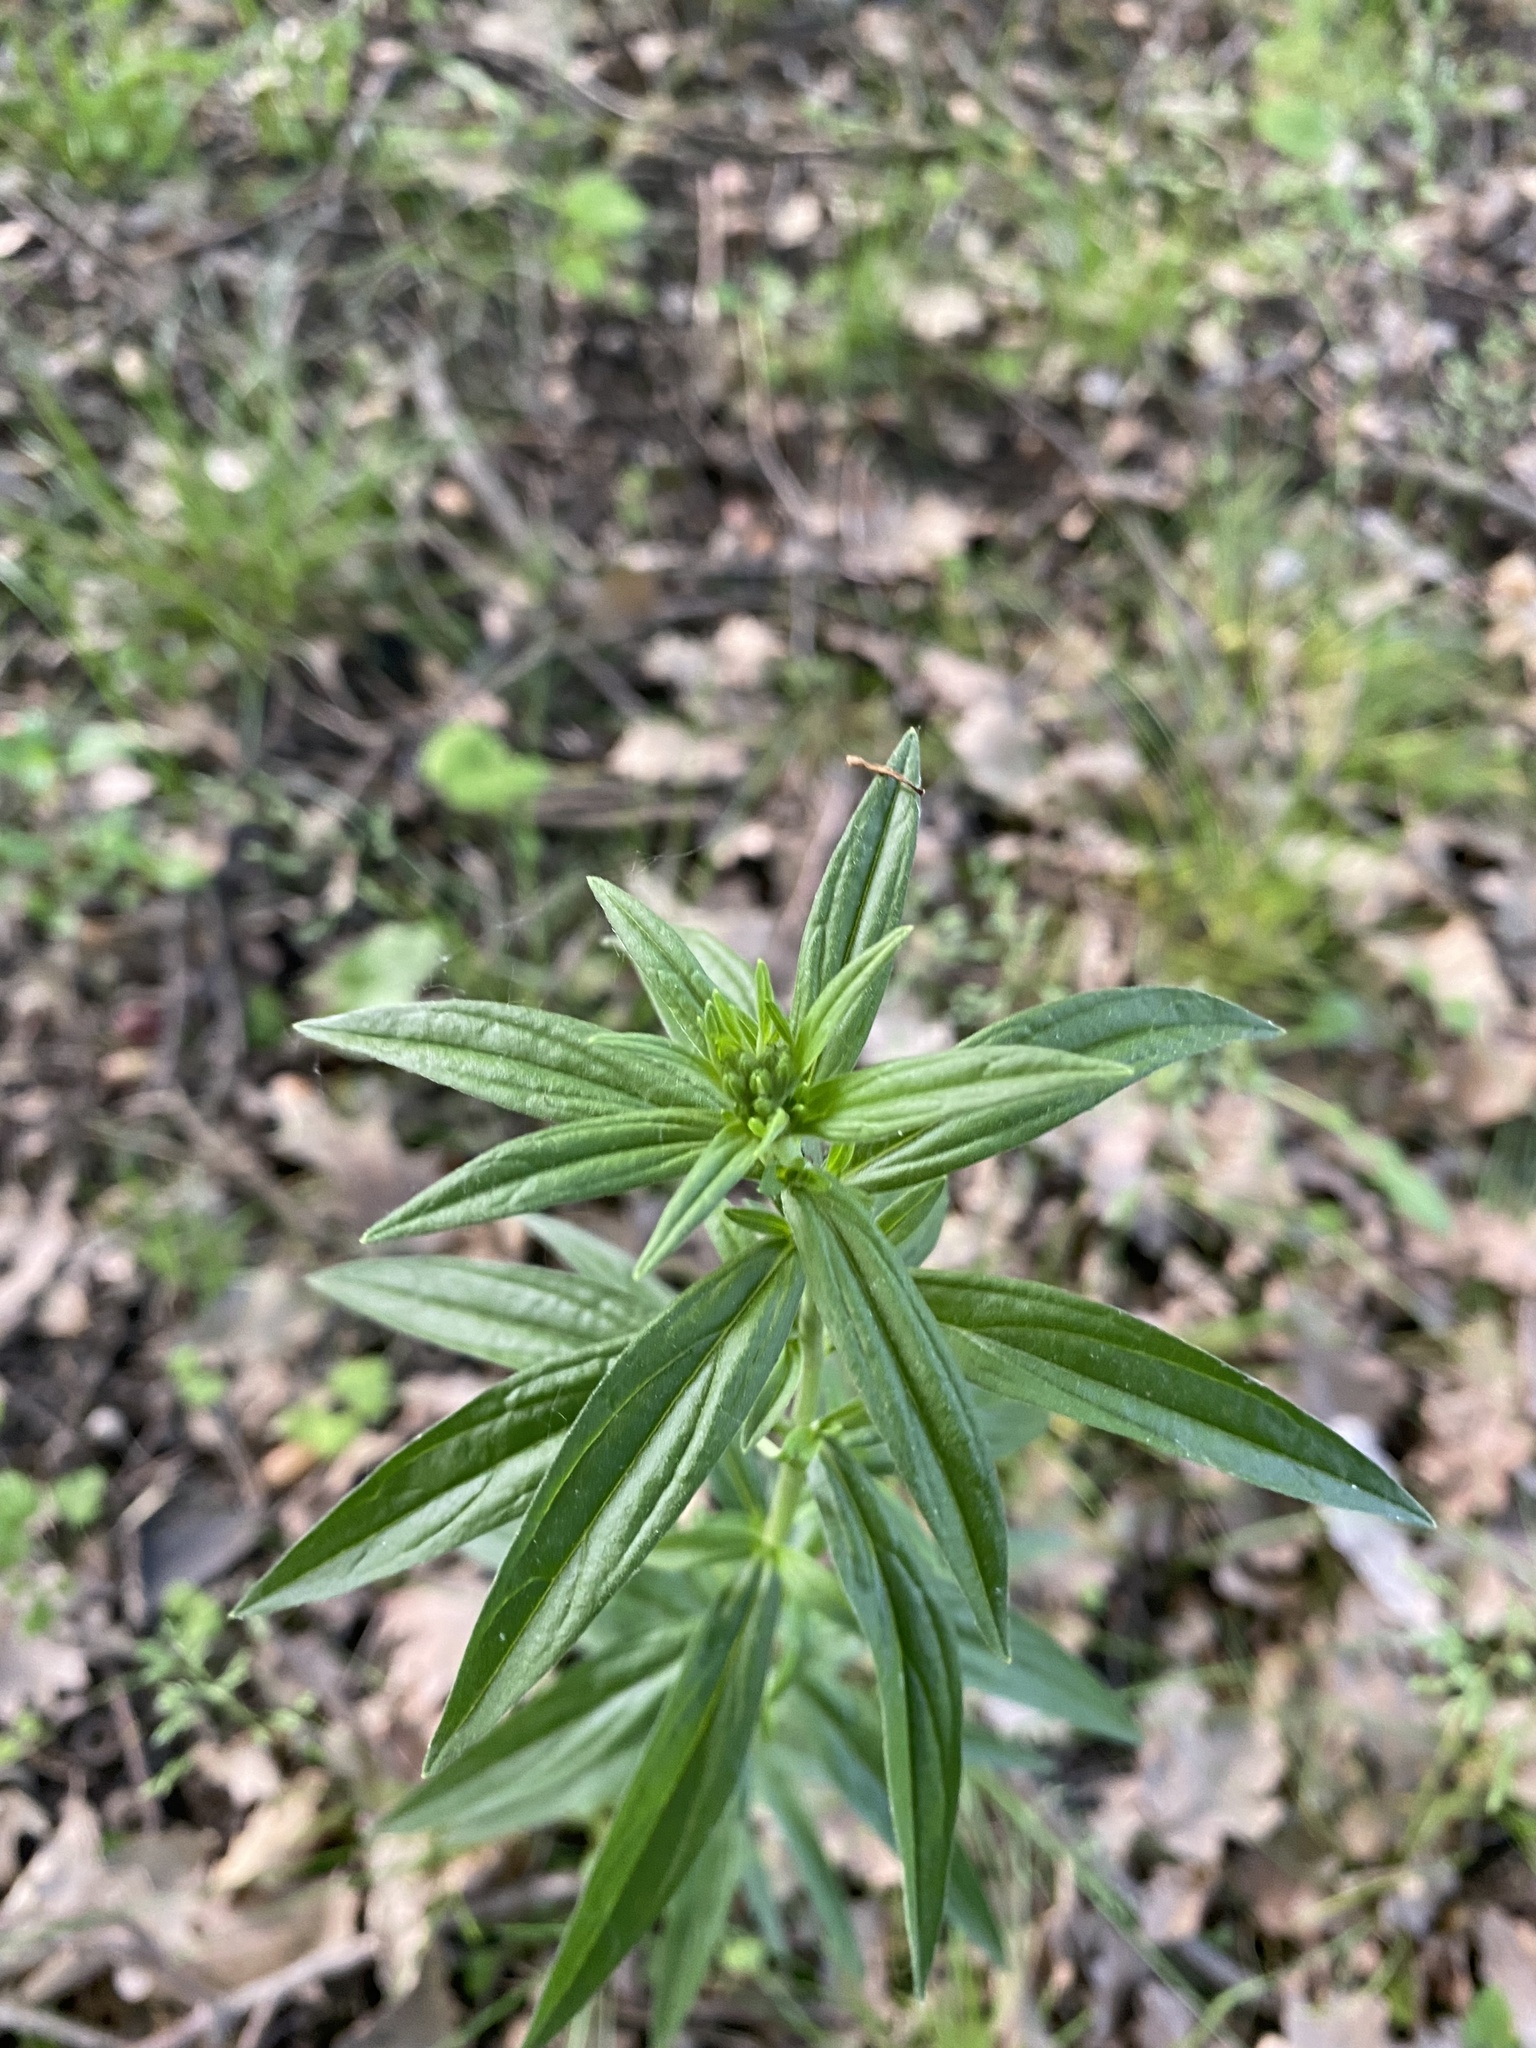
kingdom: Plantae
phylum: Tracheophyta
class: Magnoliopsida
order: Boraginales
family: Boraginaceae
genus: Lithospermum
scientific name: Lithospermum officinale
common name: Common gromwell
